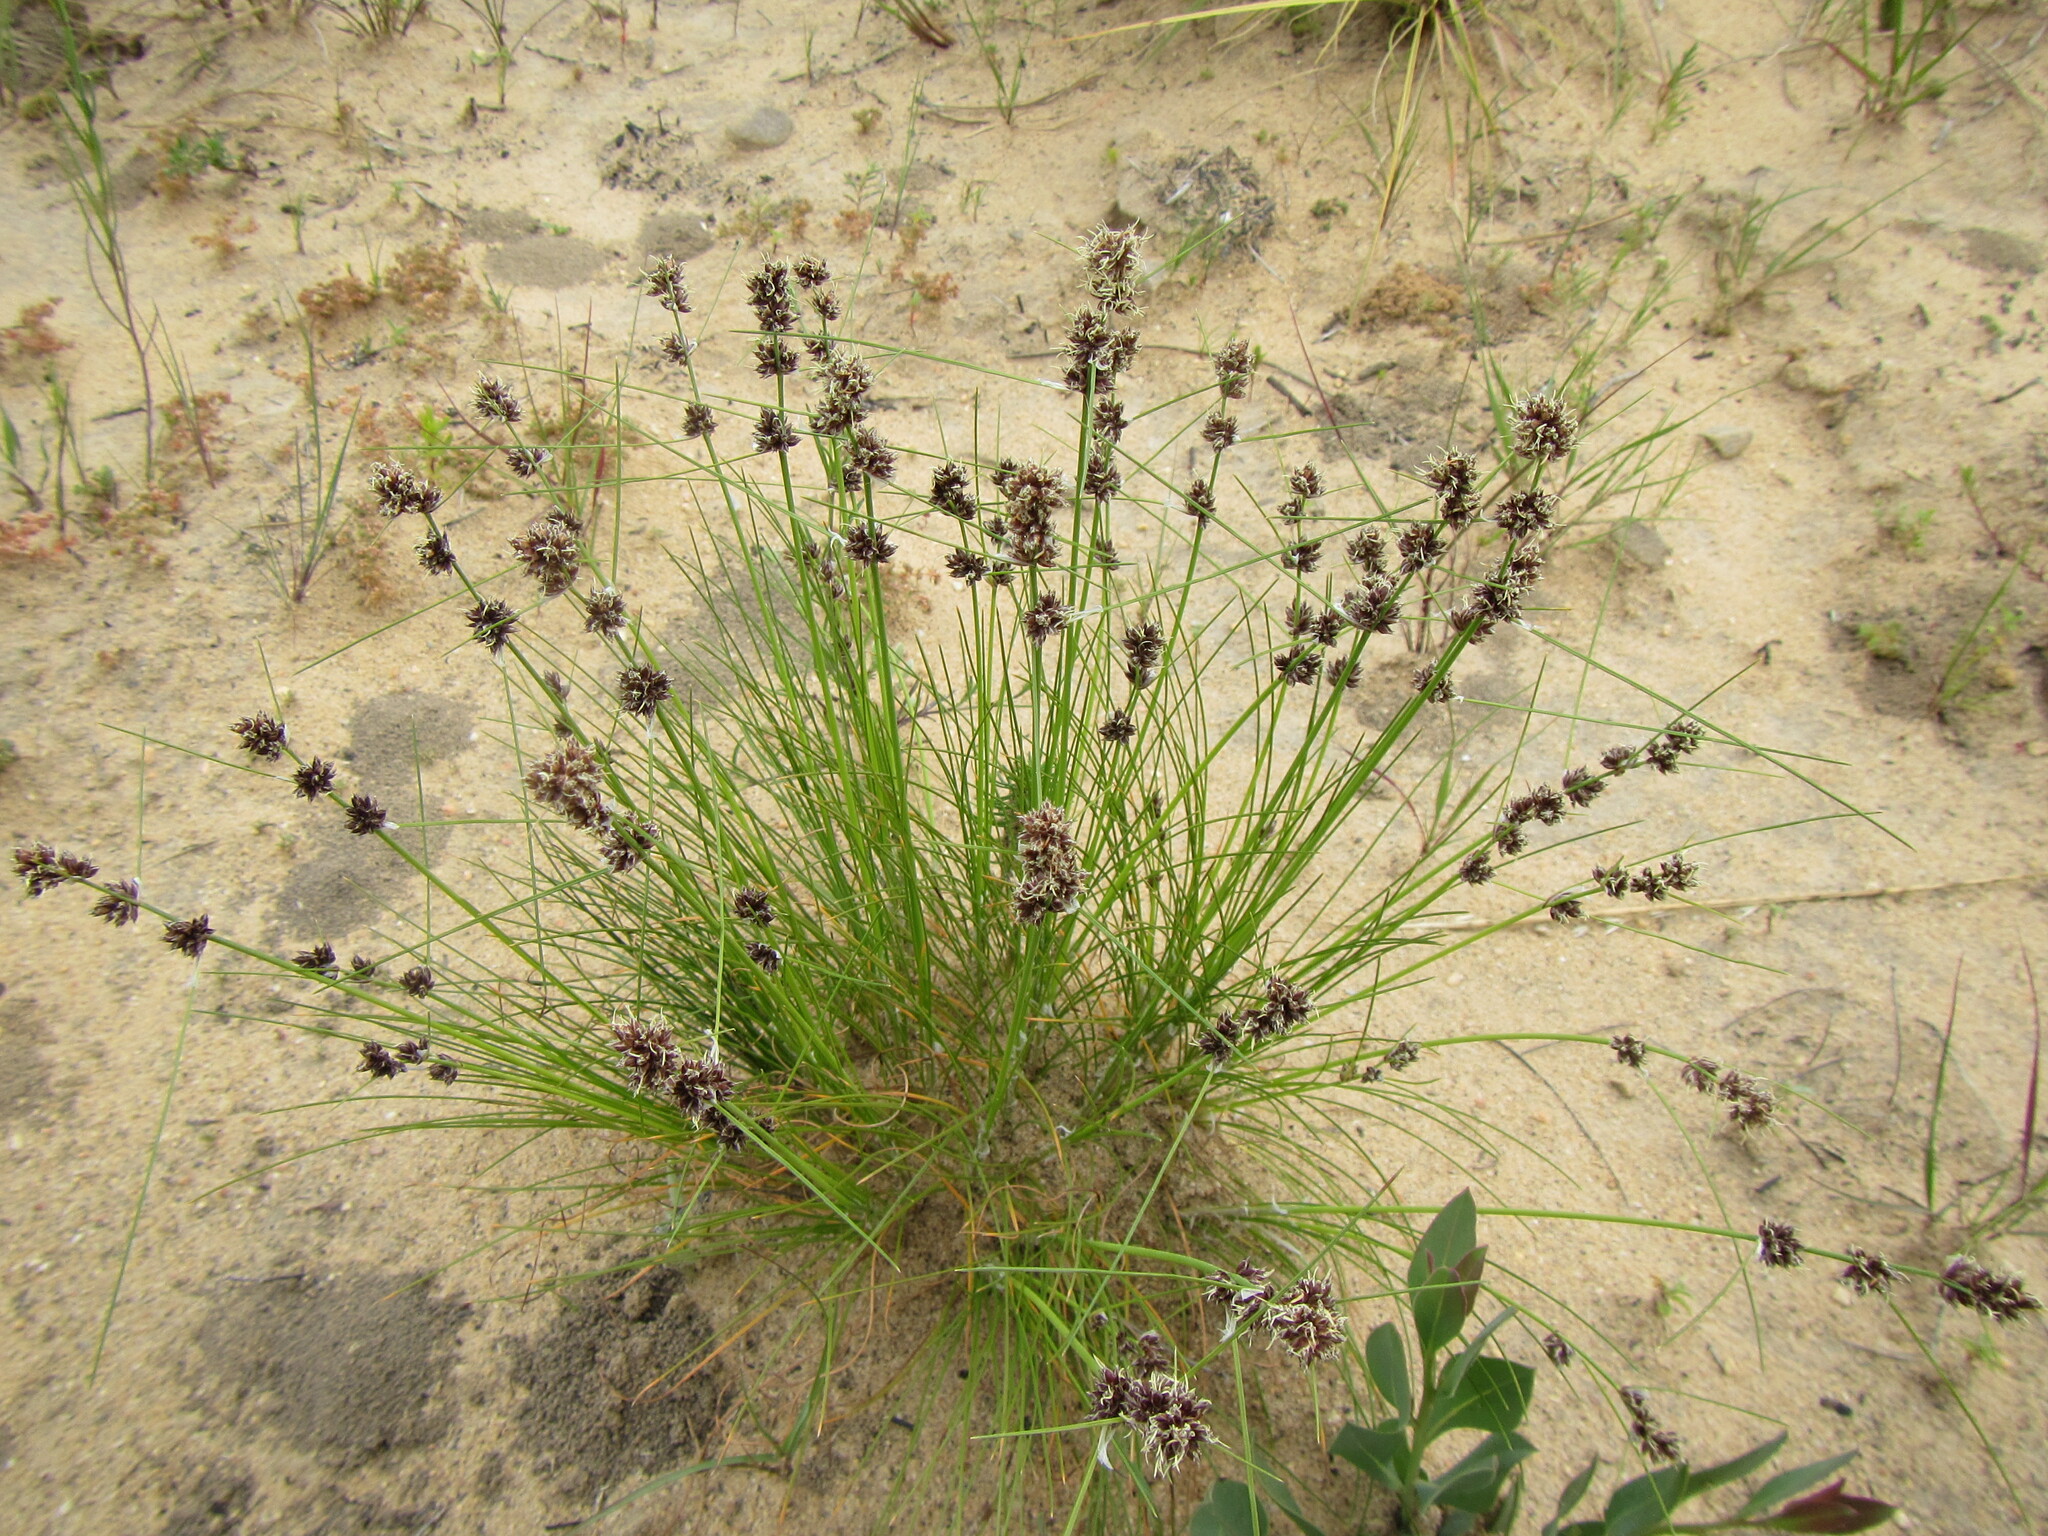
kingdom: Plantae
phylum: Tracheophyta
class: Liliopsida
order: Poales
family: Cyperaceae
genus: Ficinia
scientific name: Ficinia bulbosa
